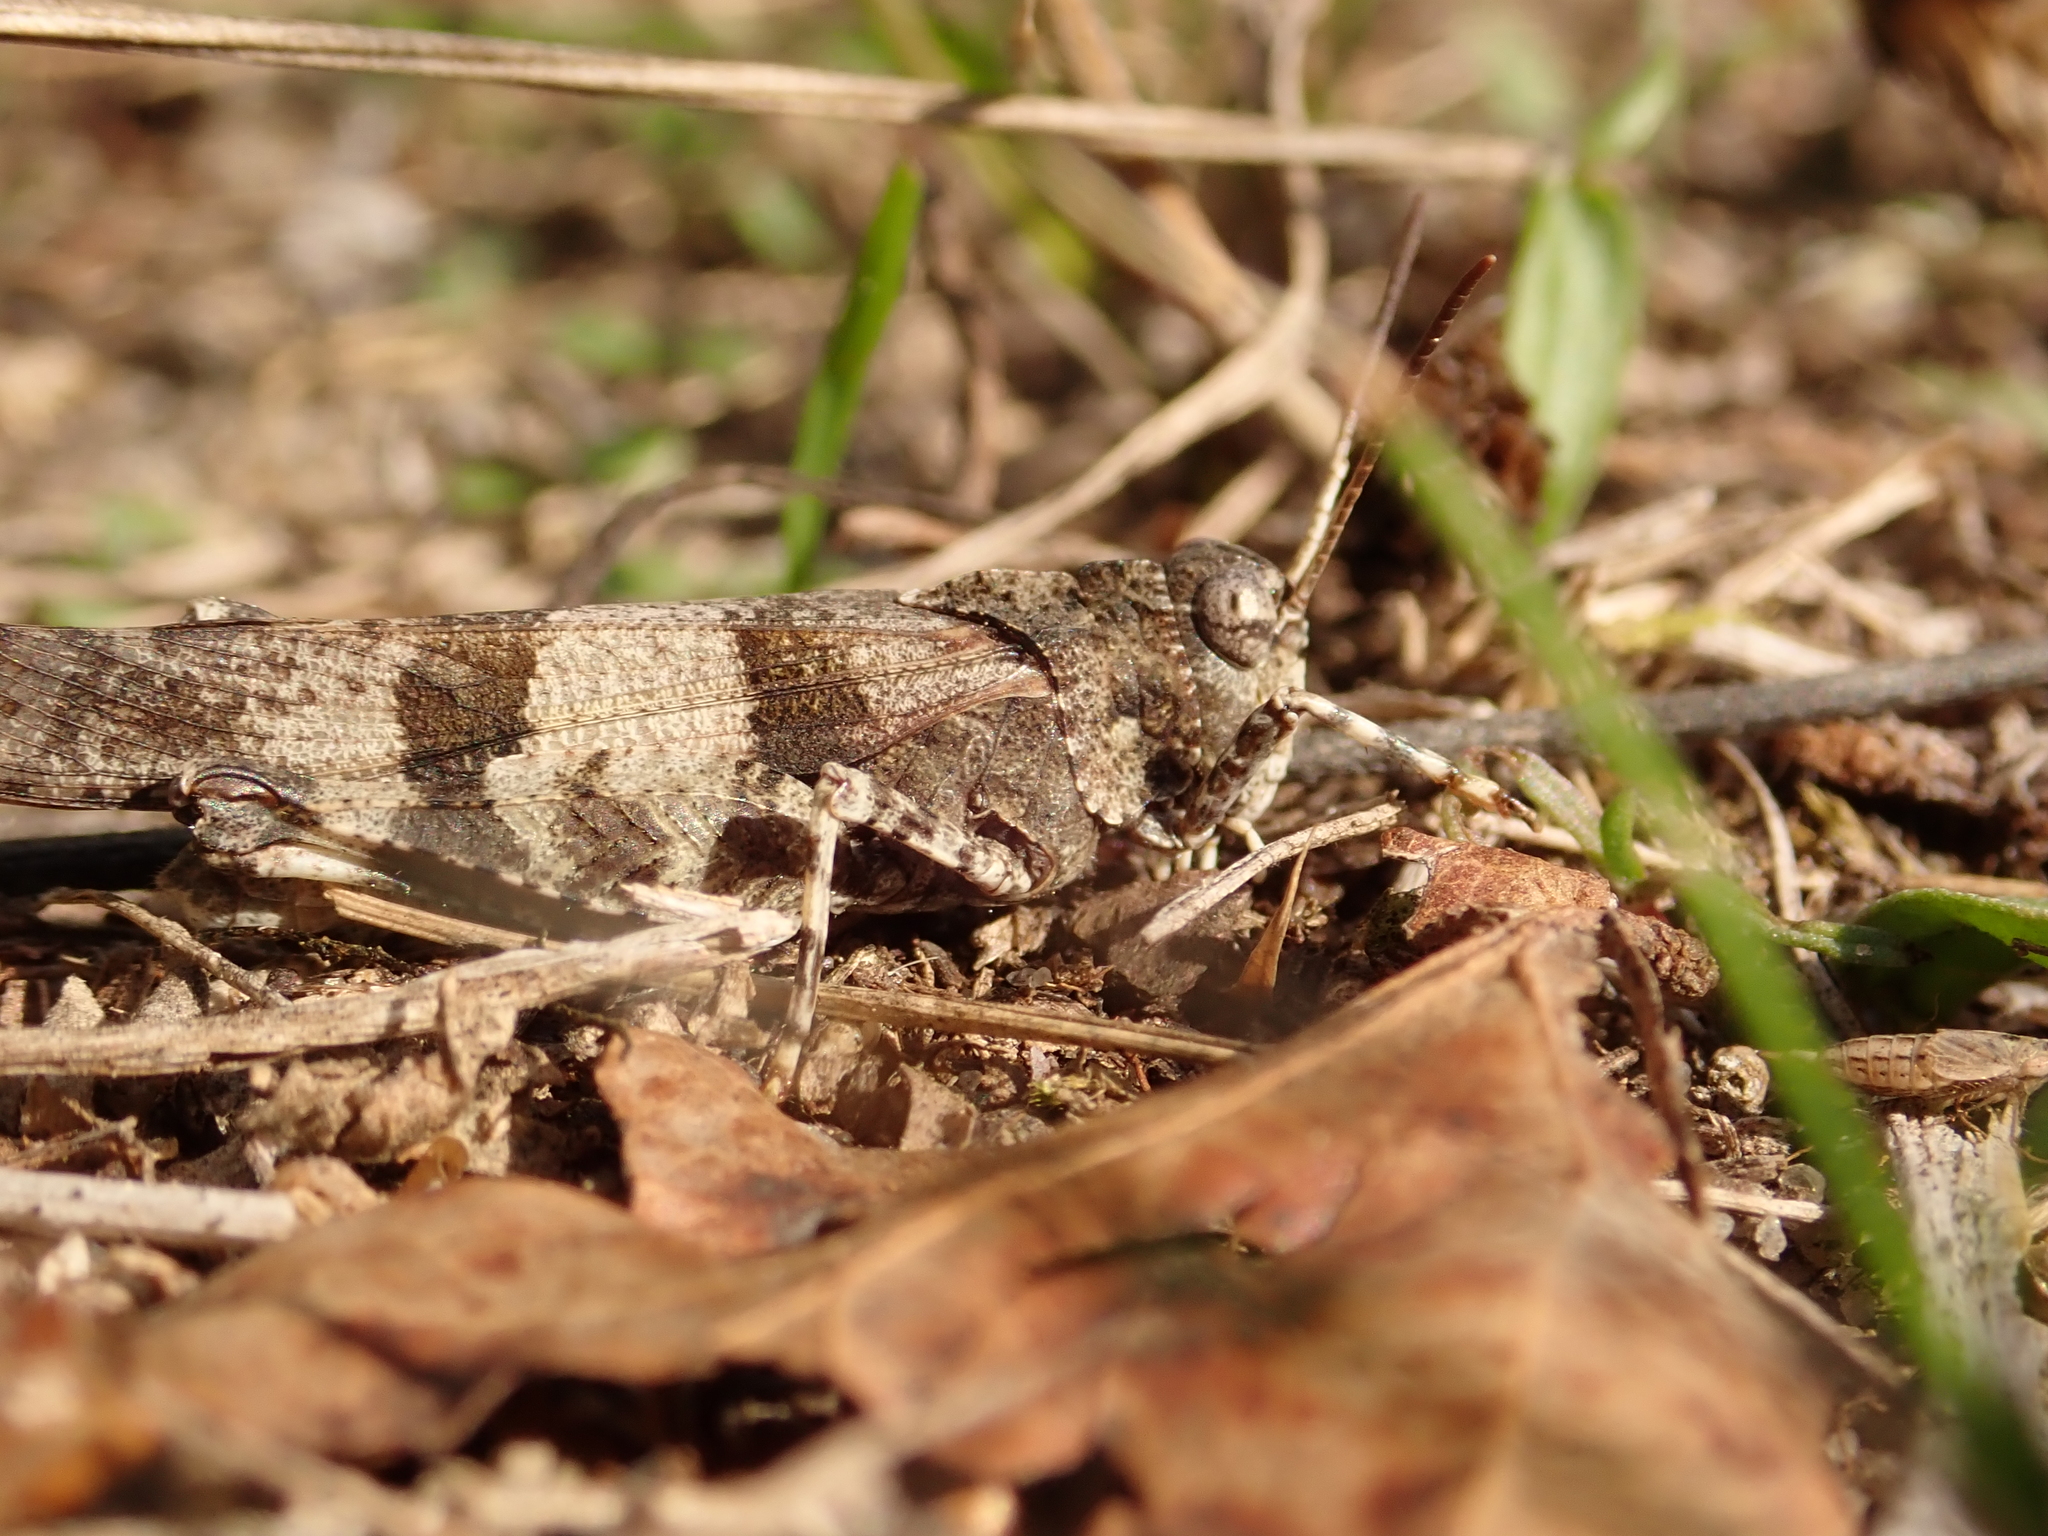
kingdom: Animalia
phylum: Arthropoda
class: Insecta
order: Orthoptera
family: Acrididae
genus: Oedipoda
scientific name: Oedipoda caerulescens
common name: Blue-winged grasshopper
